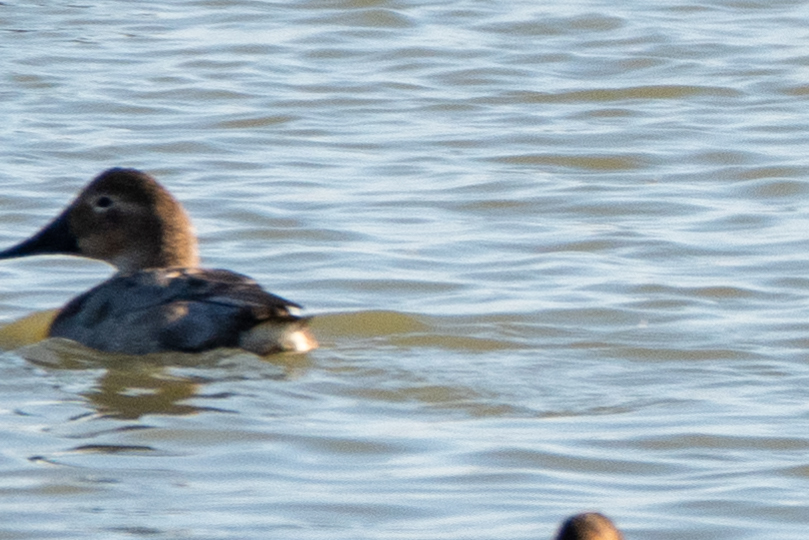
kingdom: Animalia
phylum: Chordata
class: Aves
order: Anseriformes
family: Anatidae
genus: Aythya
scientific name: Aythya valisineria
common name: Canvasback
